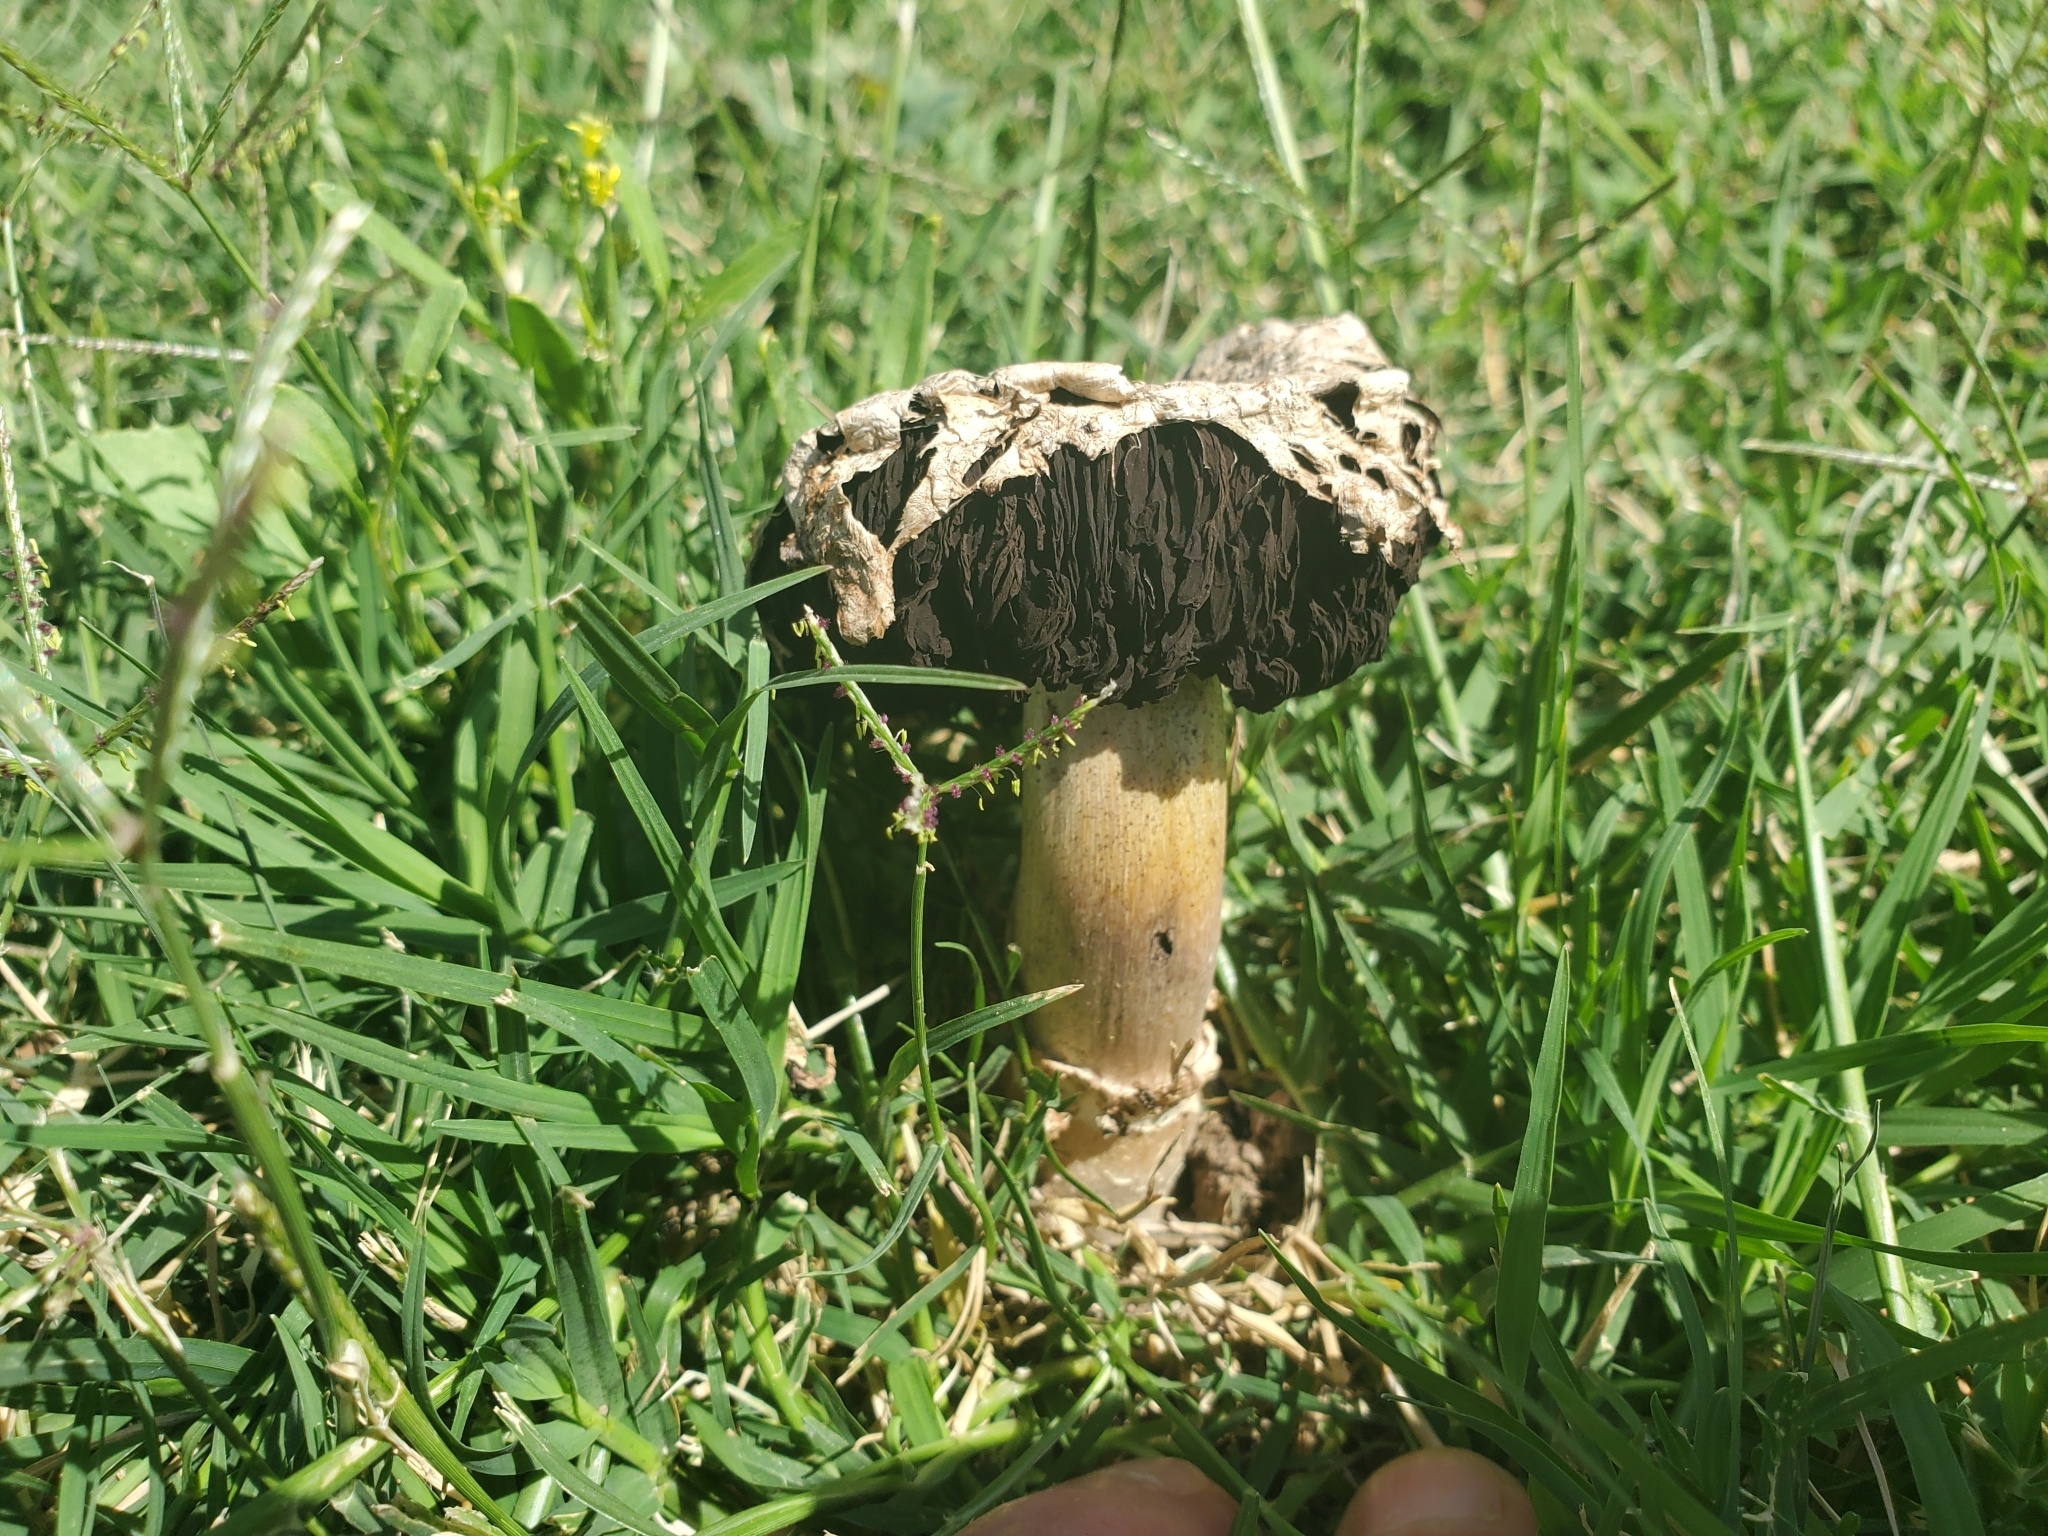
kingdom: Fungi
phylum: Basidiomycota
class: Agaricomycetes
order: Agaricales
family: Agaricaceae
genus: Agaricus
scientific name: Agaricus deserticola
